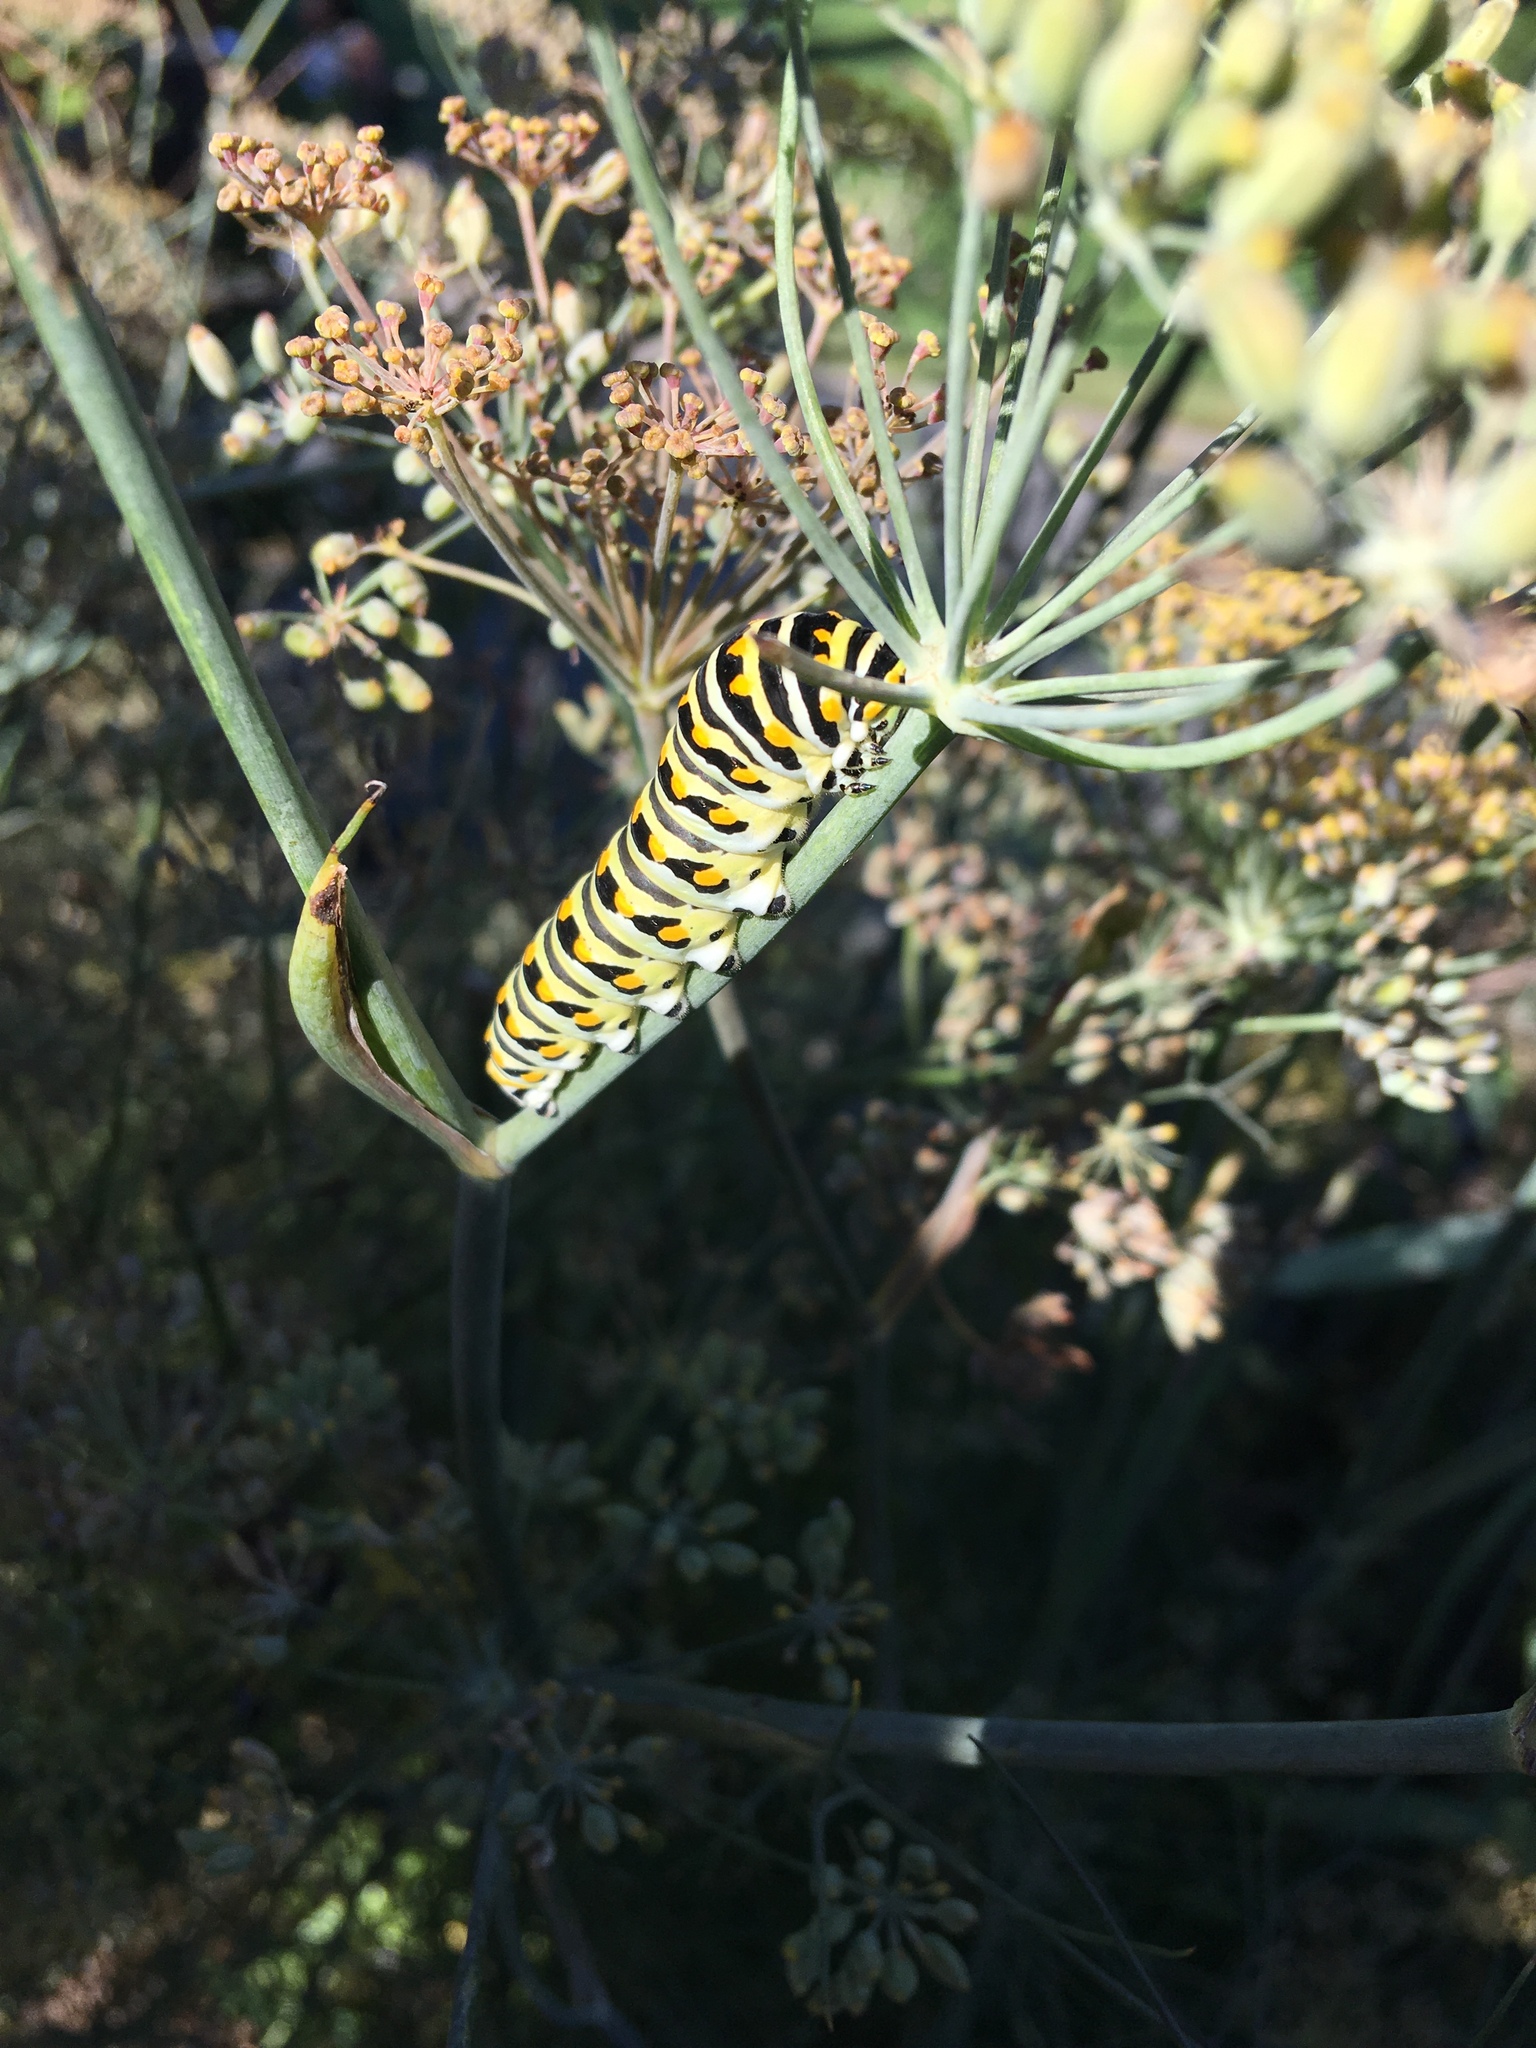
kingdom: Animalia
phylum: Arthropoda
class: Insecta
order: Lepidoptera
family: Papilionidae
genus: Papilio
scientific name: Papilio polyxenes
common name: Black swallowtail
